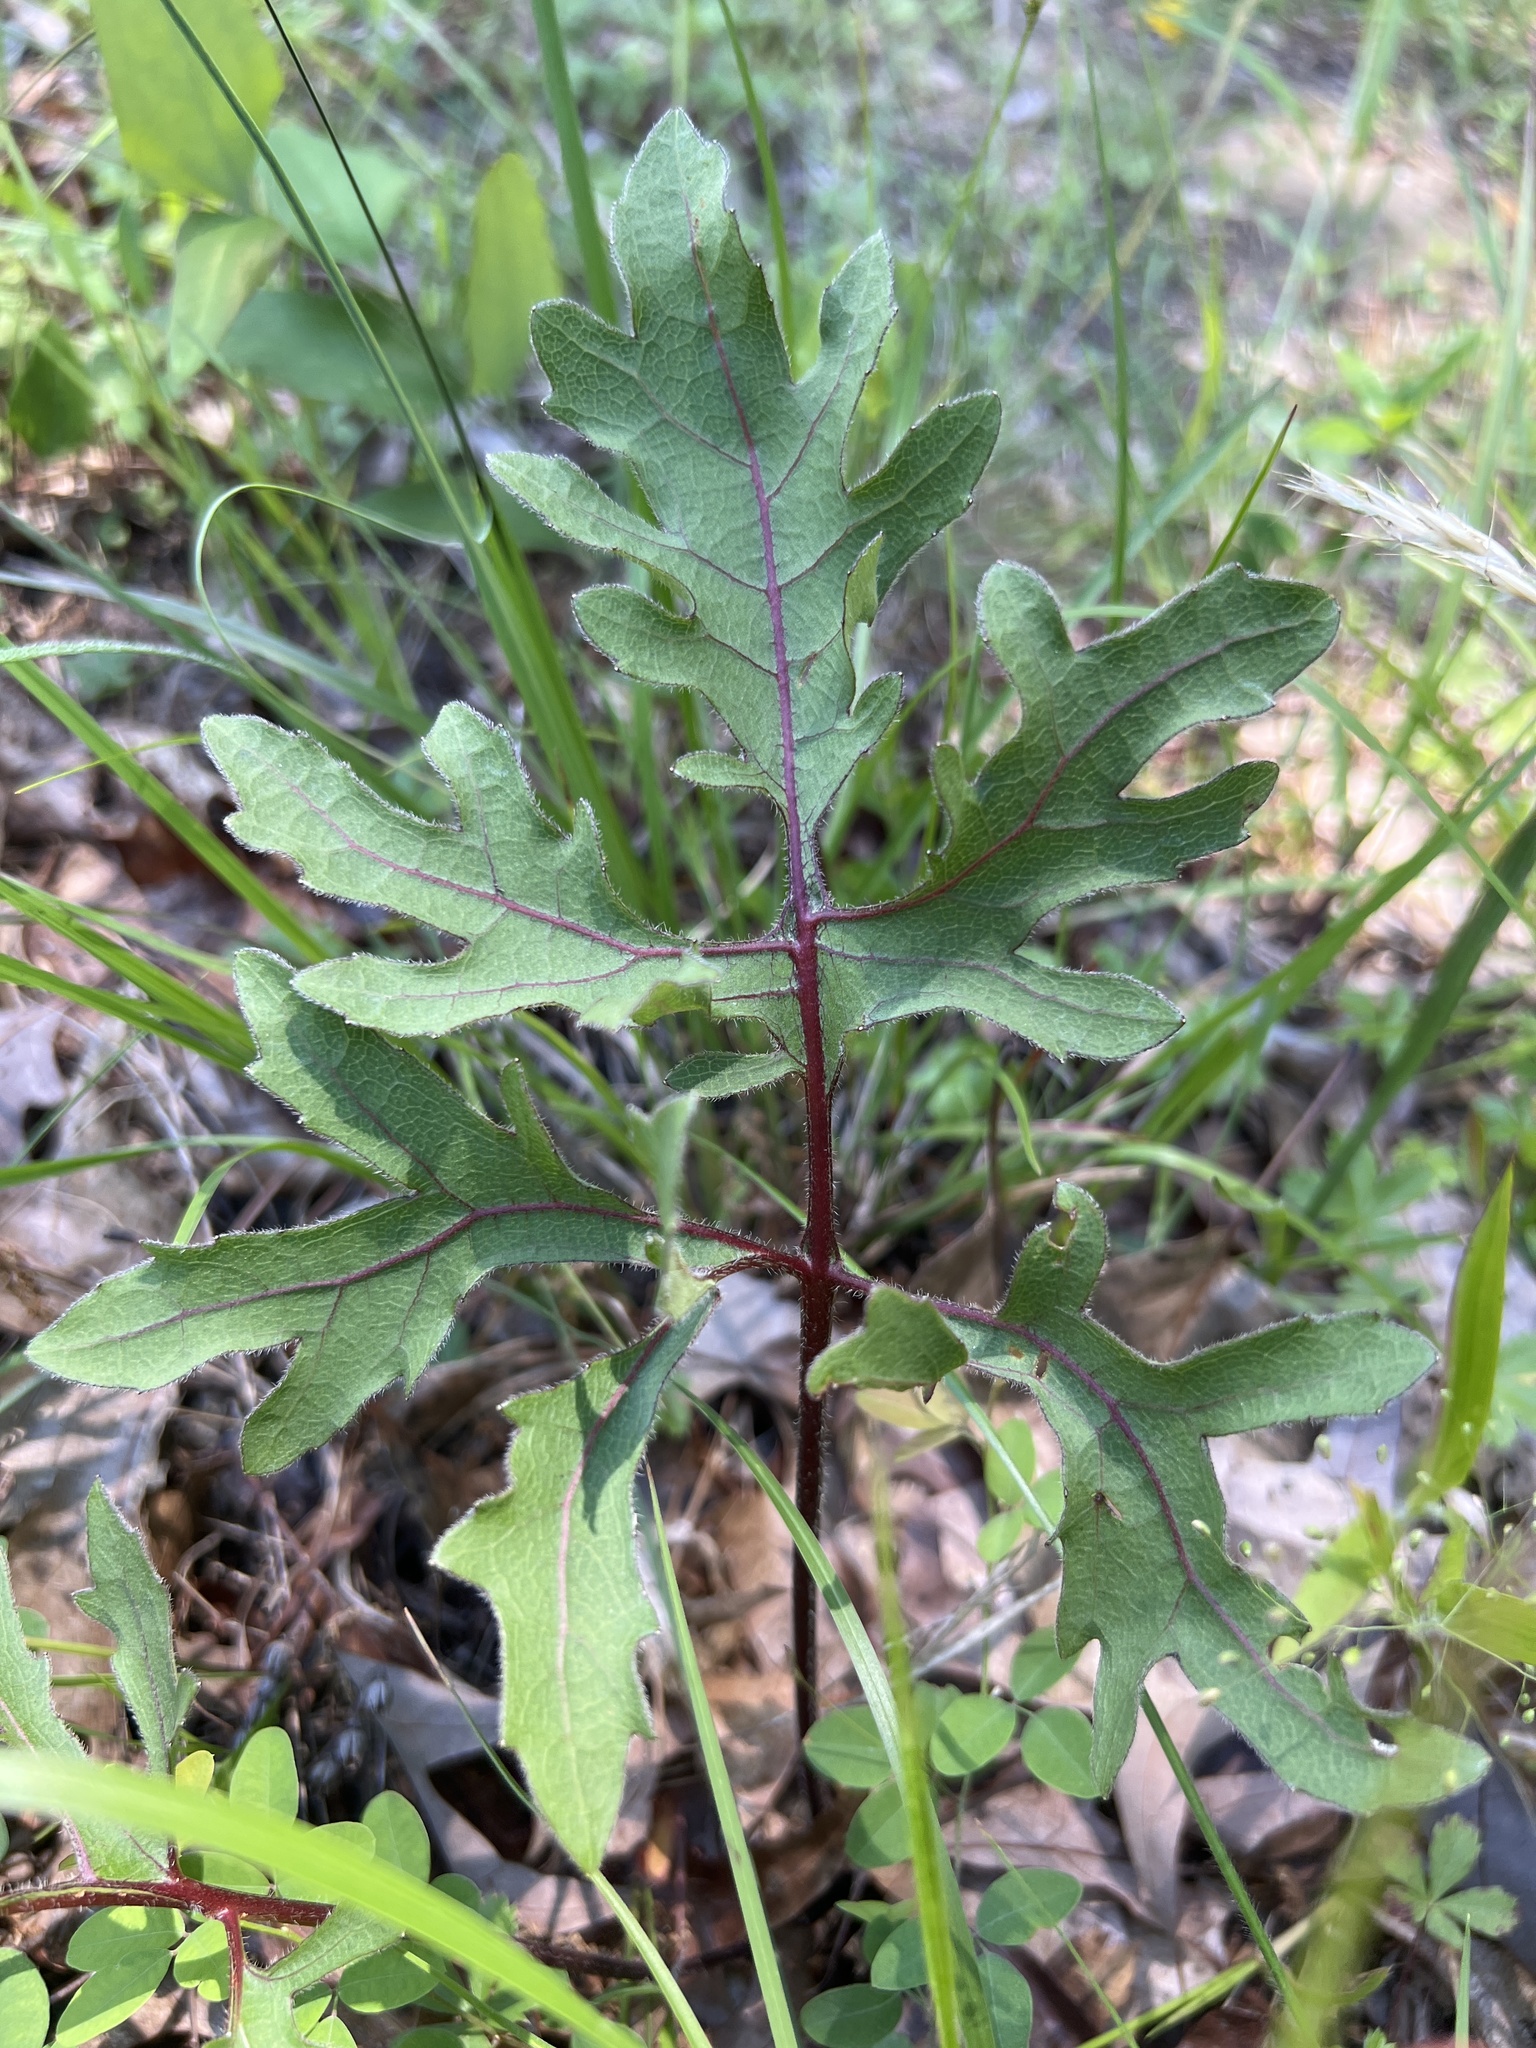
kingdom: Plantae
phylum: Tracheophyta
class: Magnoliopsida
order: Asterales
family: Asteraceae
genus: Silphium
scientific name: Silphium compositum
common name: Lesser basal-leaf rosinweed
